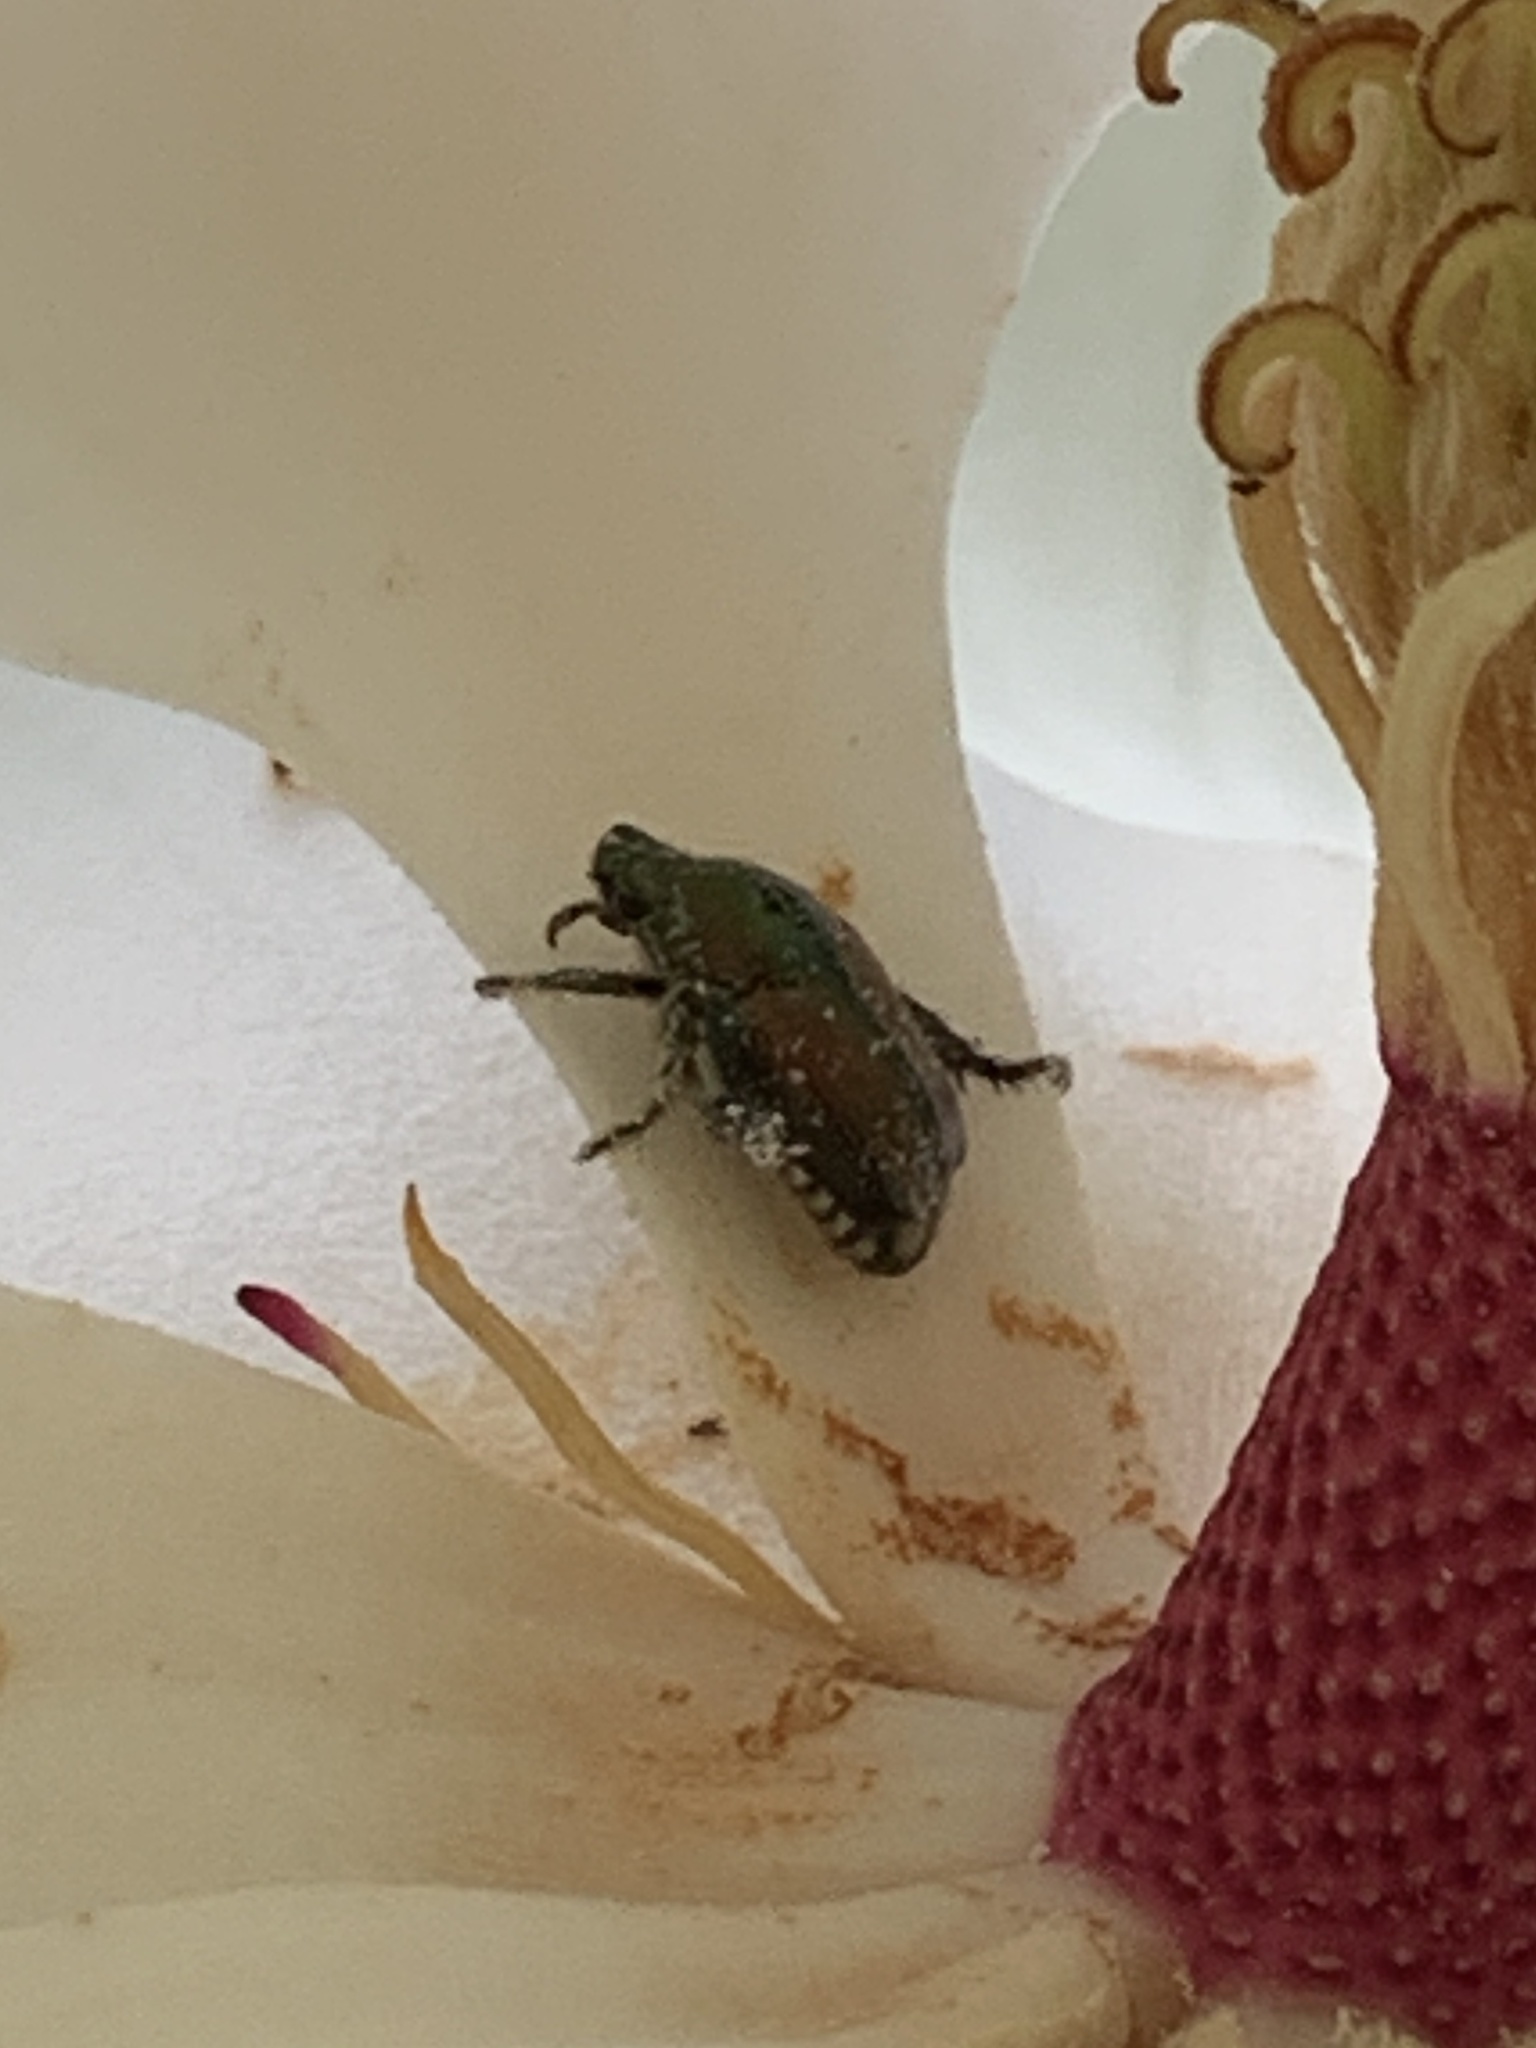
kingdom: Animalia
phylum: Arthropoda
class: Insecta
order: Coleoptera
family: Scarabaeidae
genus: Popillia
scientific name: Popillia japonica
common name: Japanese beetle
